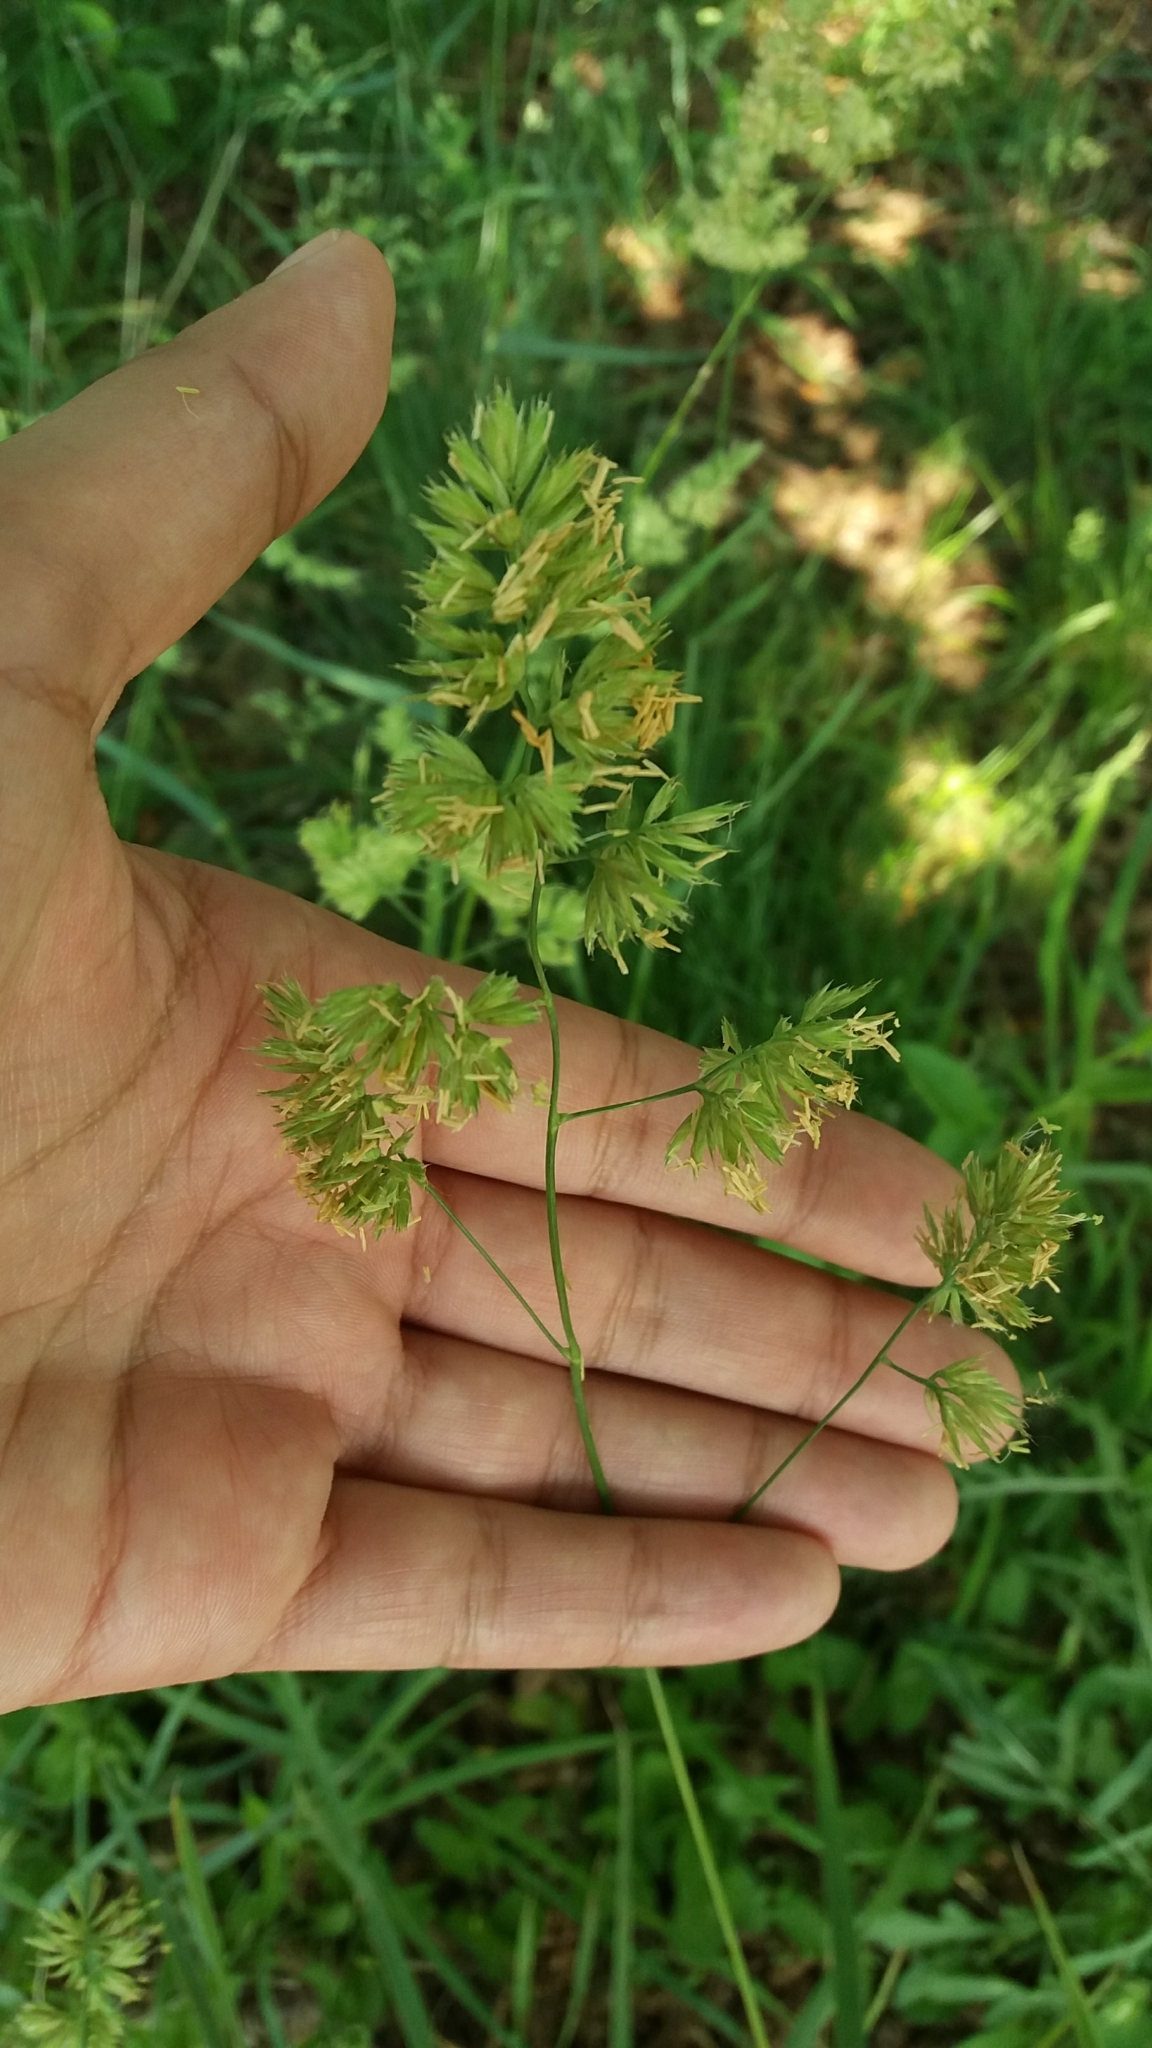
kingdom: Plantae
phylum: Tracheophyta
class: Liliopsida
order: Poales
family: Poaceae
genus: Dactylis
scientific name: Dactylis glomerata
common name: Orchardgrass
